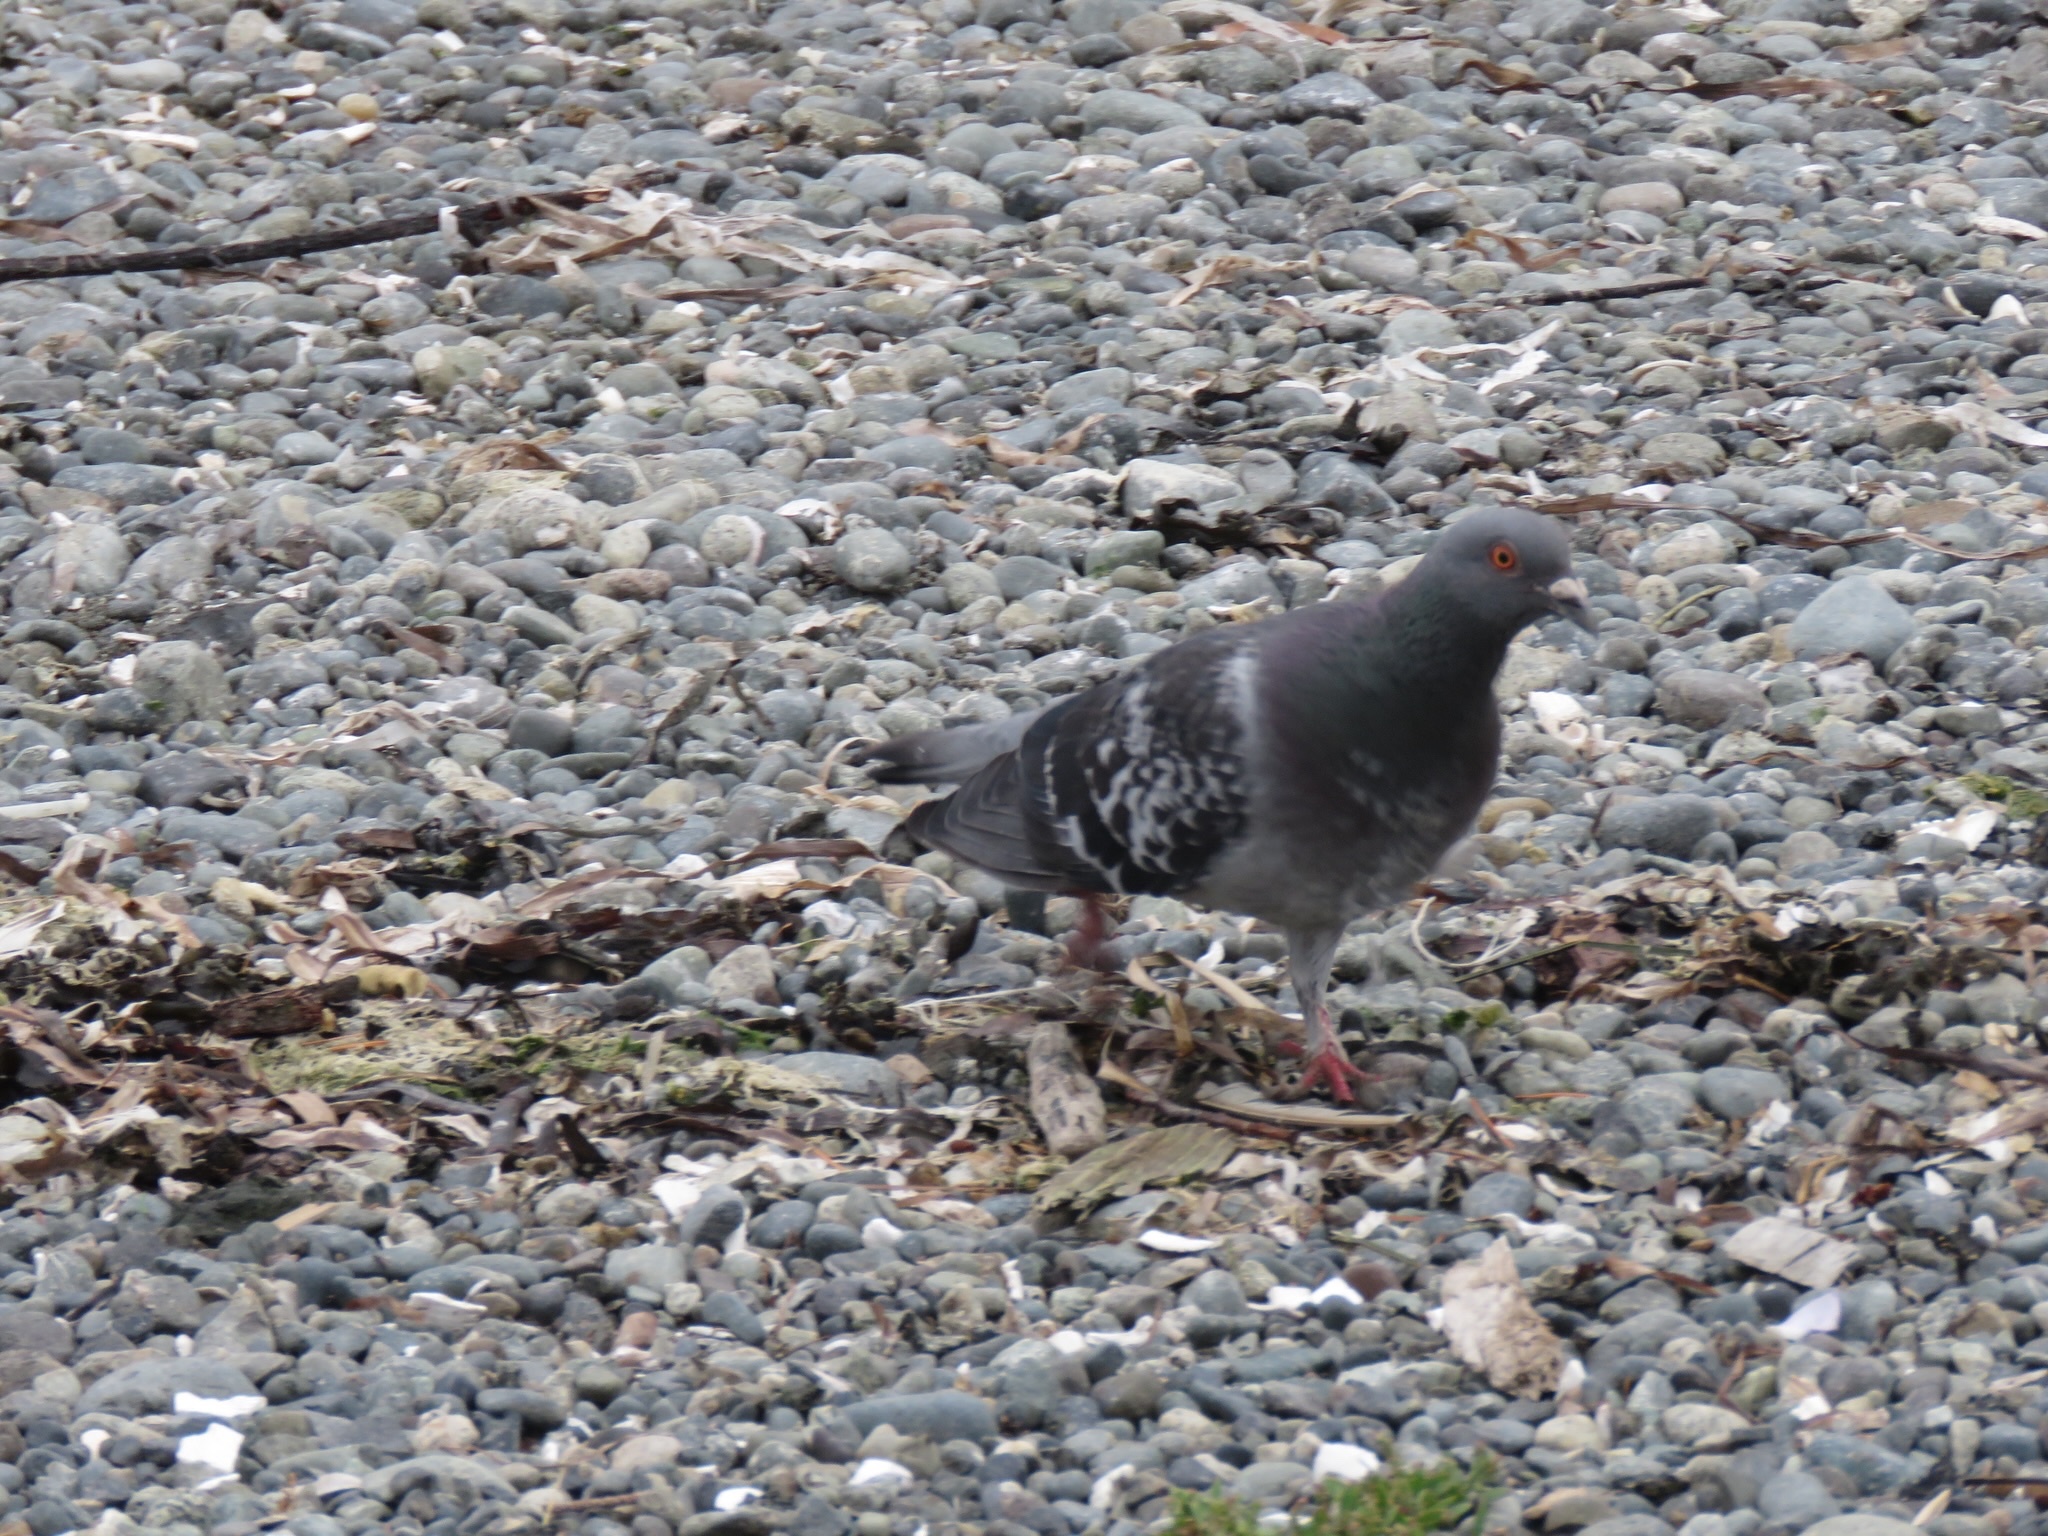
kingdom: Animalia
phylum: Chordata
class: Aves
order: Columbiformes
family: Columbidae
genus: Columba
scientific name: Columba livia
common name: Rock pigeon
